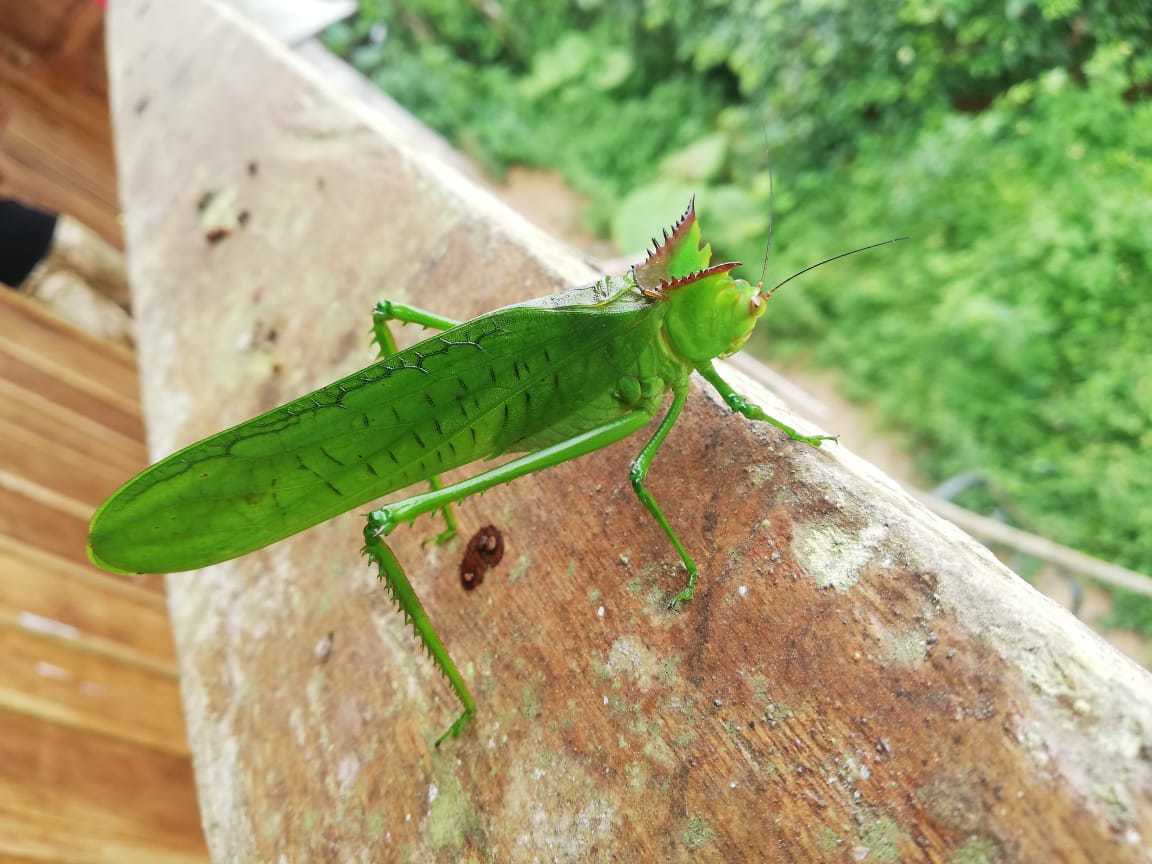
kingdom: Animalia
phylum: Arthropoda
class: Insecta
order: Orthoptera
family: Tettigoniidae
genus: Nicklephyllum
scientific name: Nicklephyllum acanthonotum
